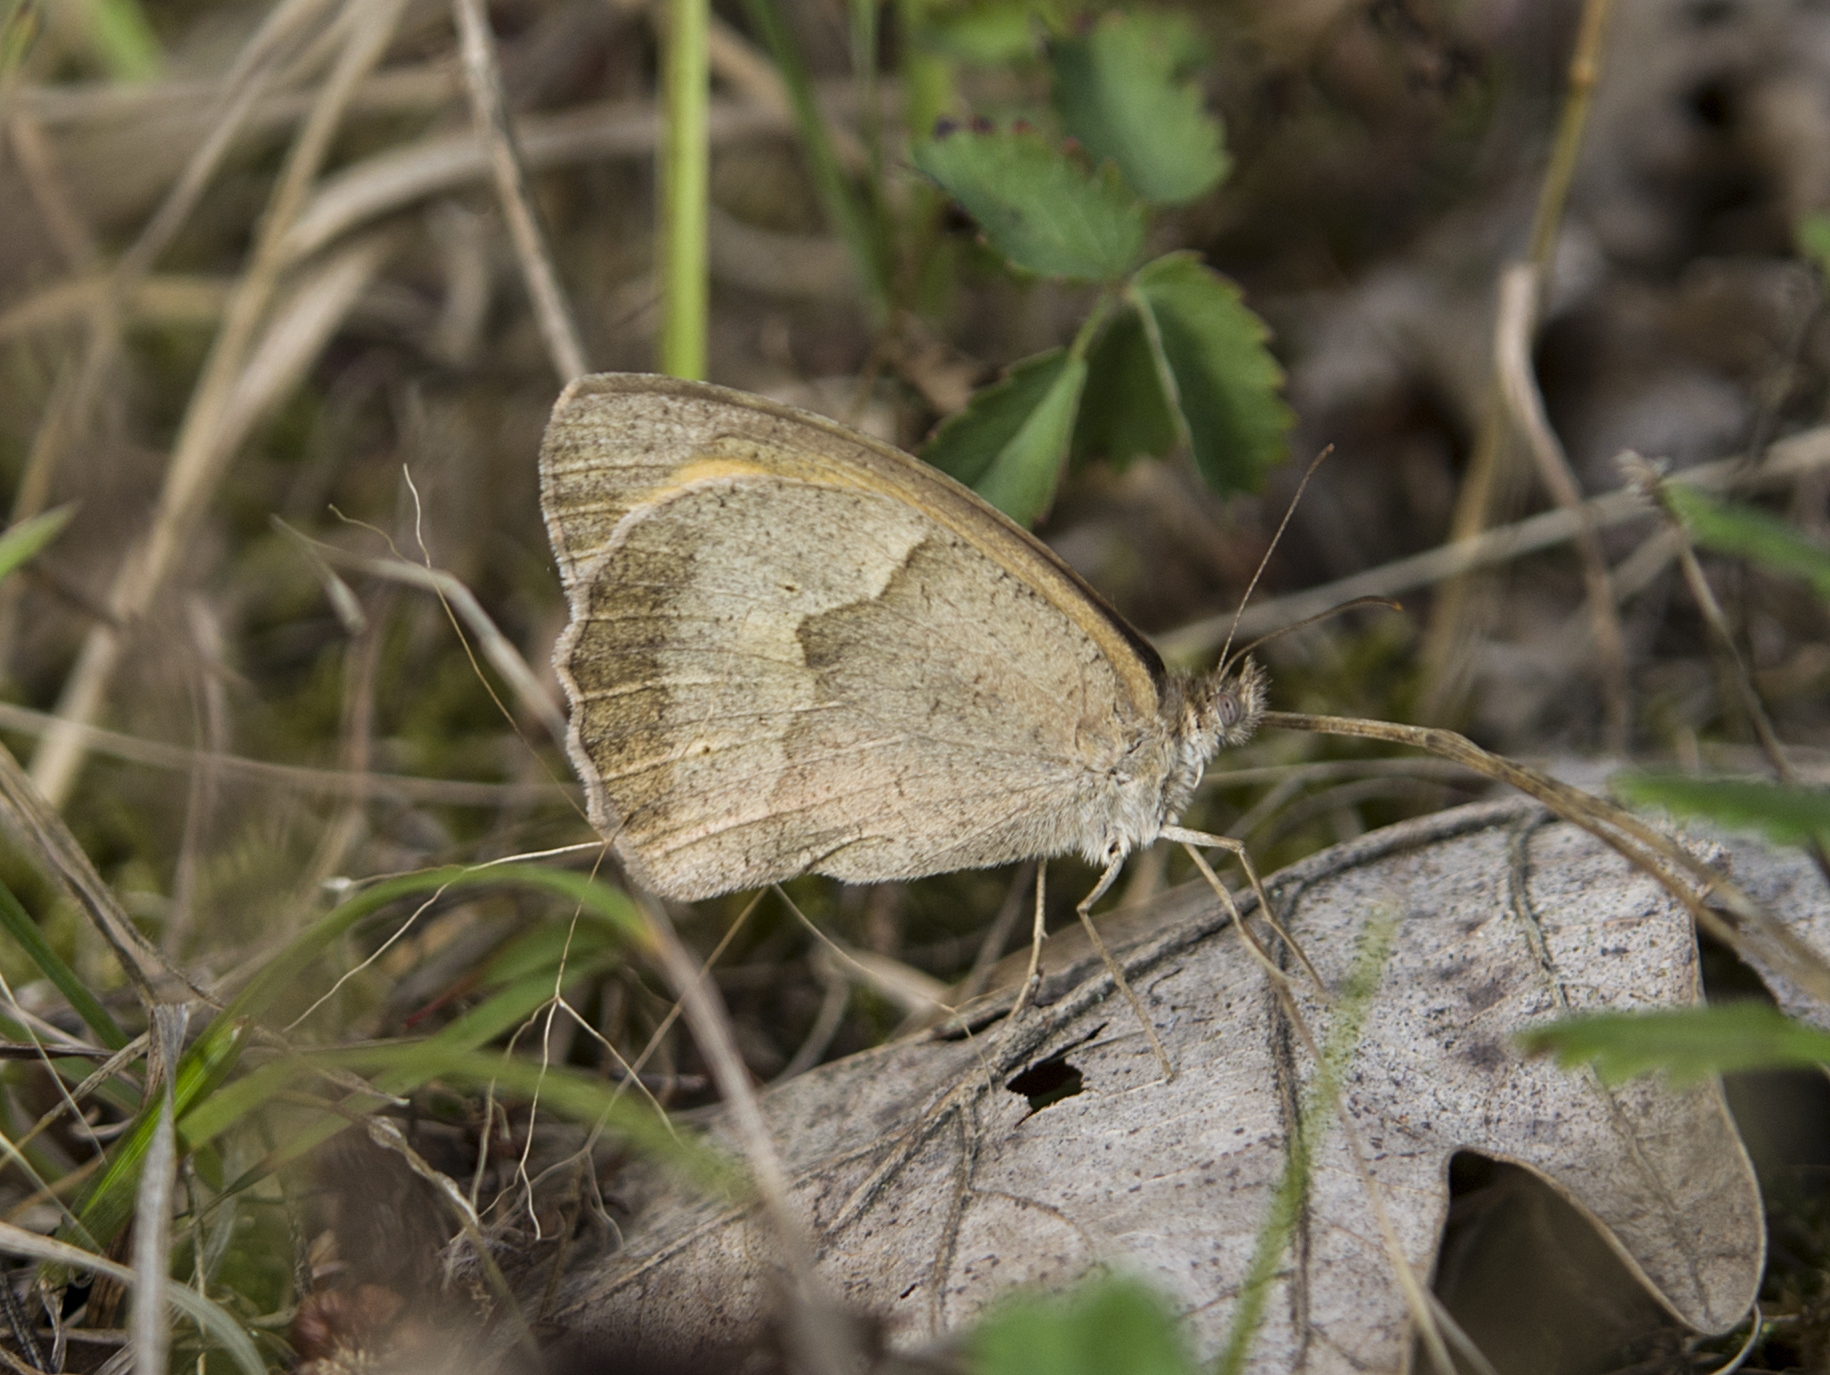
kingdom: Animalia
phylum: Arthropoda
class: Insecta
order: Lepidoptera
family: Nymphalidae
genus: Maniola
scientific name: Maniola jurtina
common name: Meadow brown
